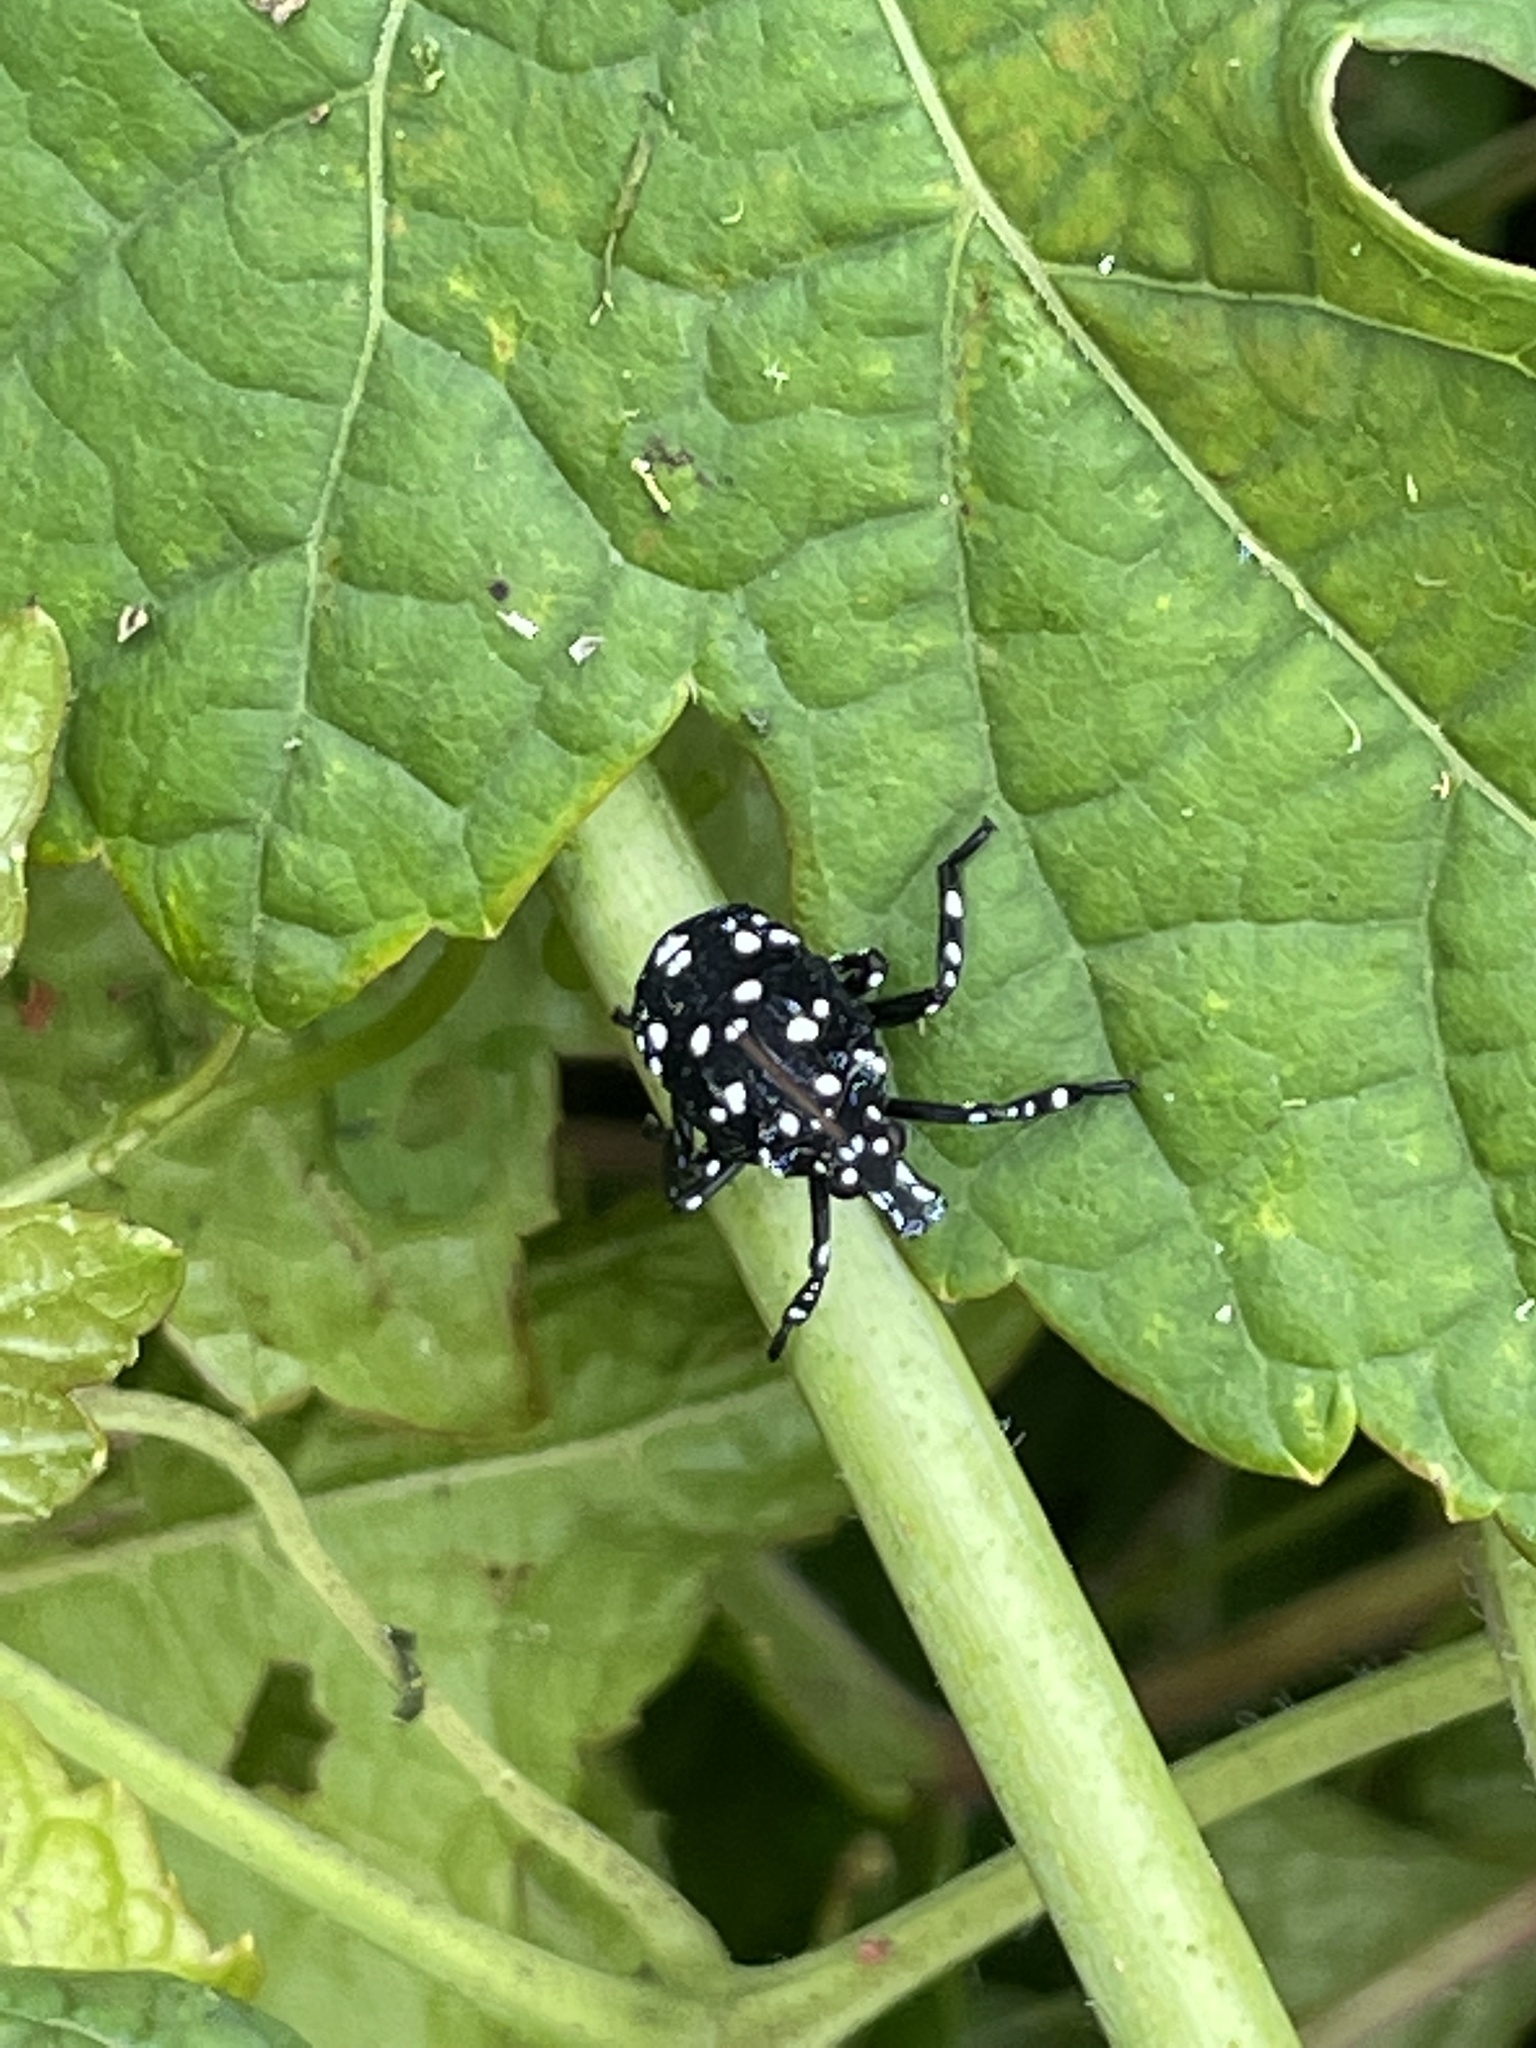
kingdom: Animalia
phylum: Arthropoda
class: Insecta
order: Hemiptera
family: Fulgoridae
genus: Lycorma
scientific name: Lycorma delicatula
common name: Spotted lanternfly
